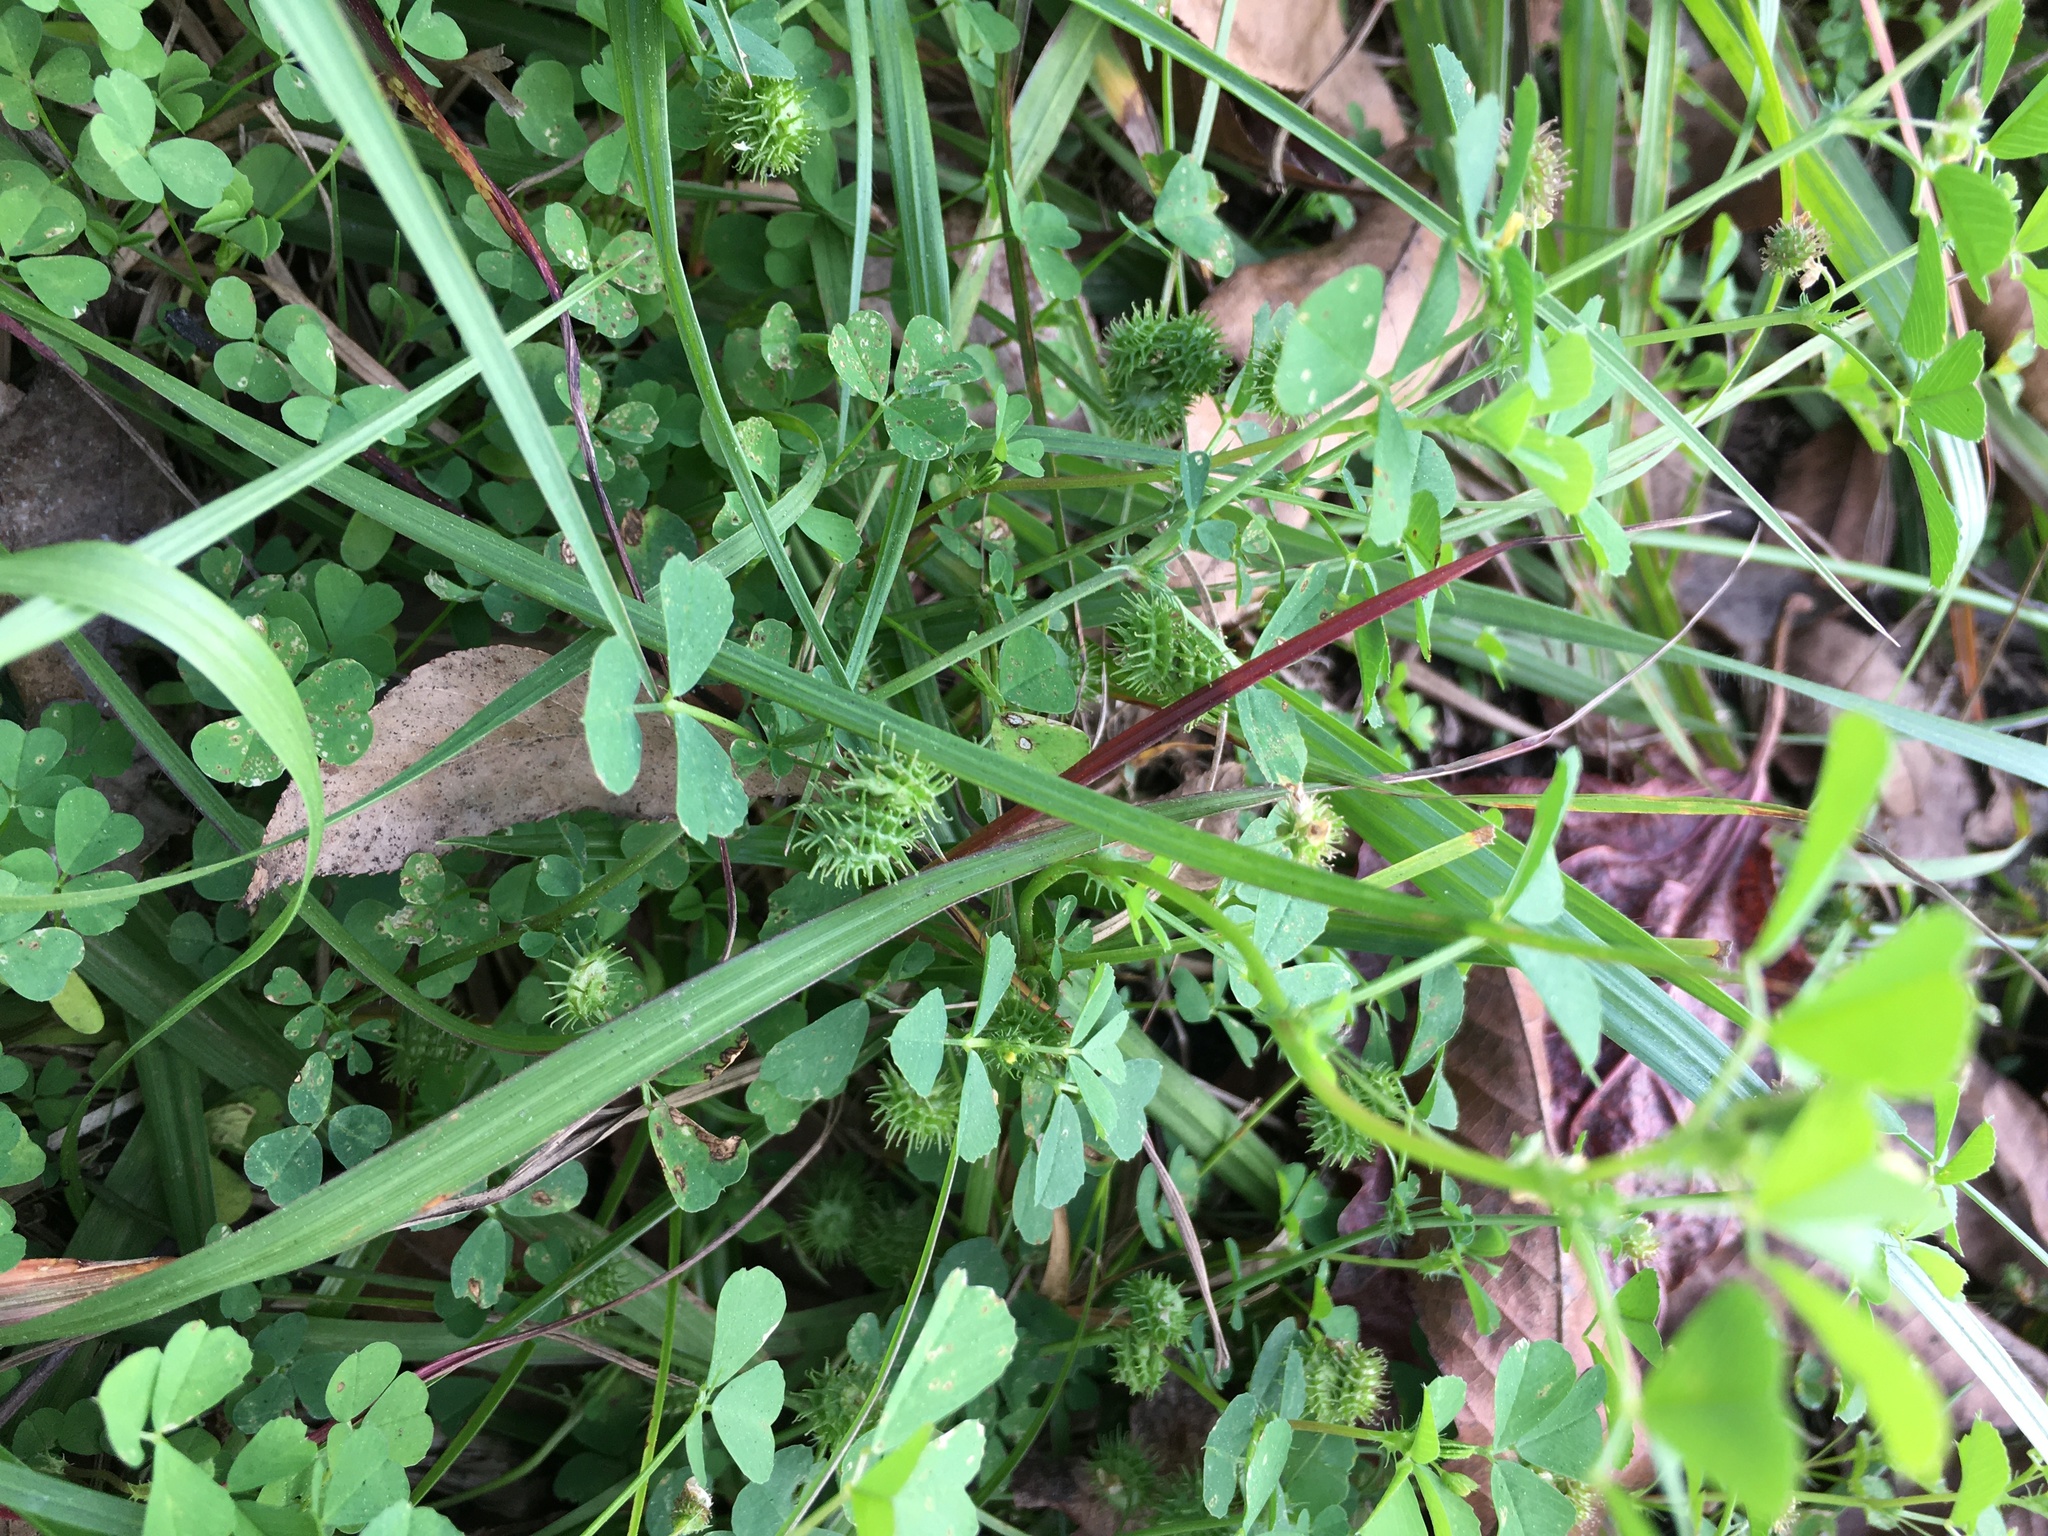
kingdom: Plantae
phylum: Tracheophyta
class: Magnoliopsida
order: Fabales
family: Fabaceae
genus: Medicago
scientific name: Medicago polymorpha
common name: Burclover
